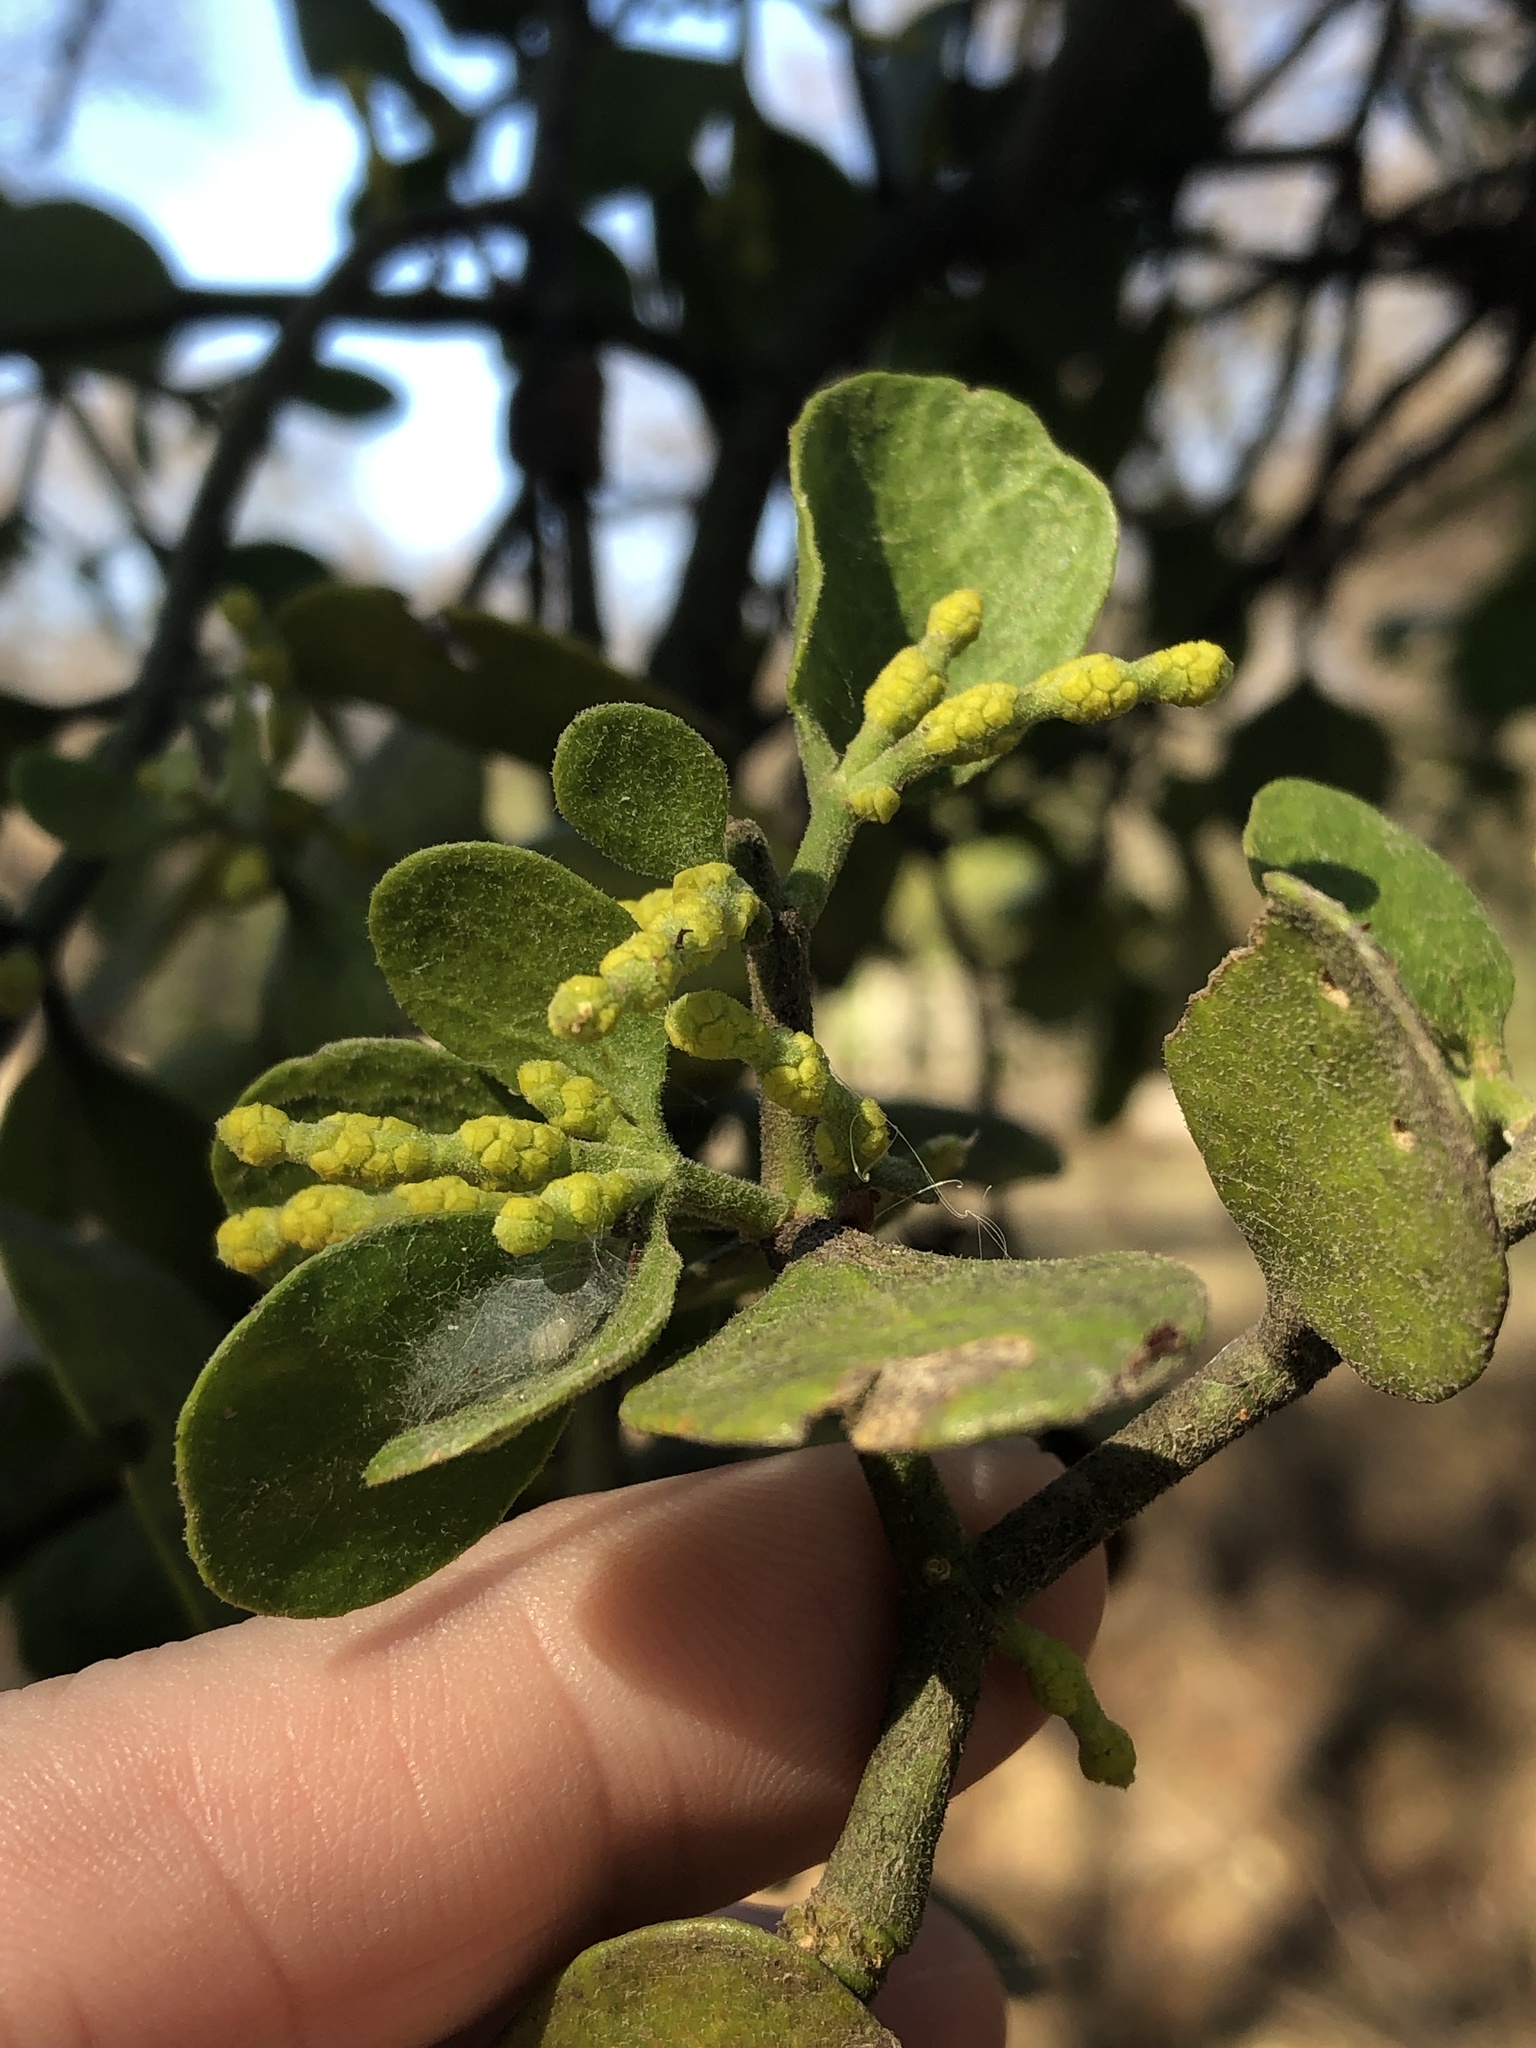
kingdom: Plantae
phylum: Tracheophyta
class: Magnoliopsida
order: Santalales
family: Viscaceae
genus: Phoradendron
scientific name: Phoradendron leucarpum
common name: Pacific mistletoe
